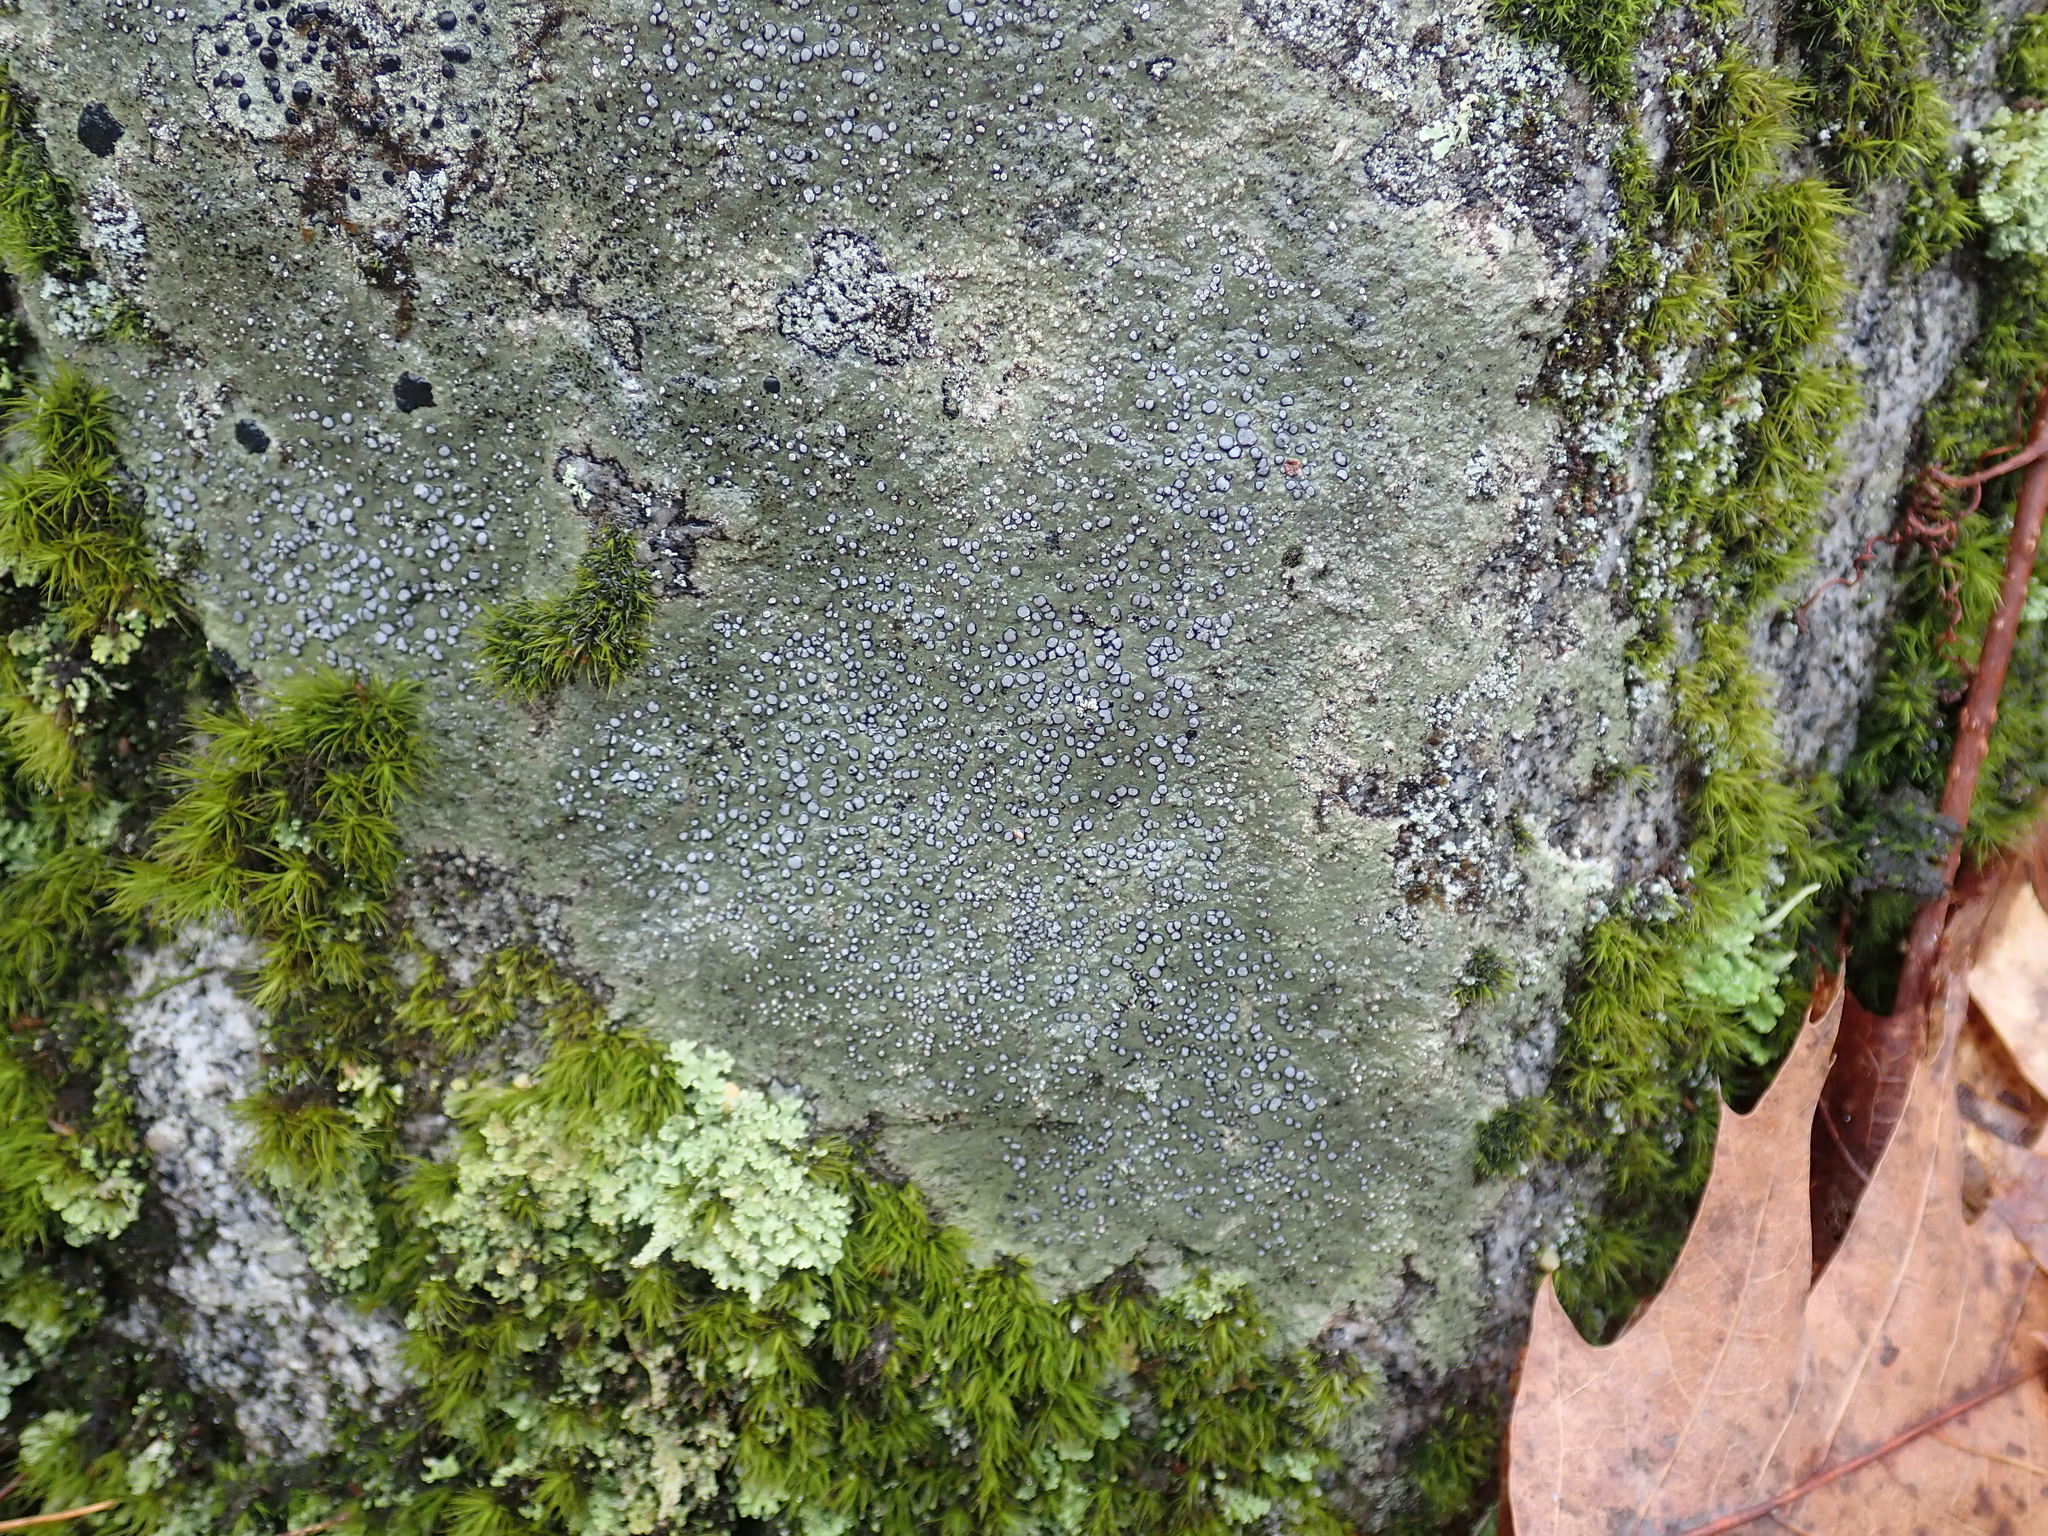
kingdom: Fungi
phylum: Ascomycota
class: Lecanoromycetes
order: Lecideales
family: Lecideaceae
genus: Porpidia
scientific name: Porpidia albocaerulescens
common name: Smokey-eyed boulder lichen
